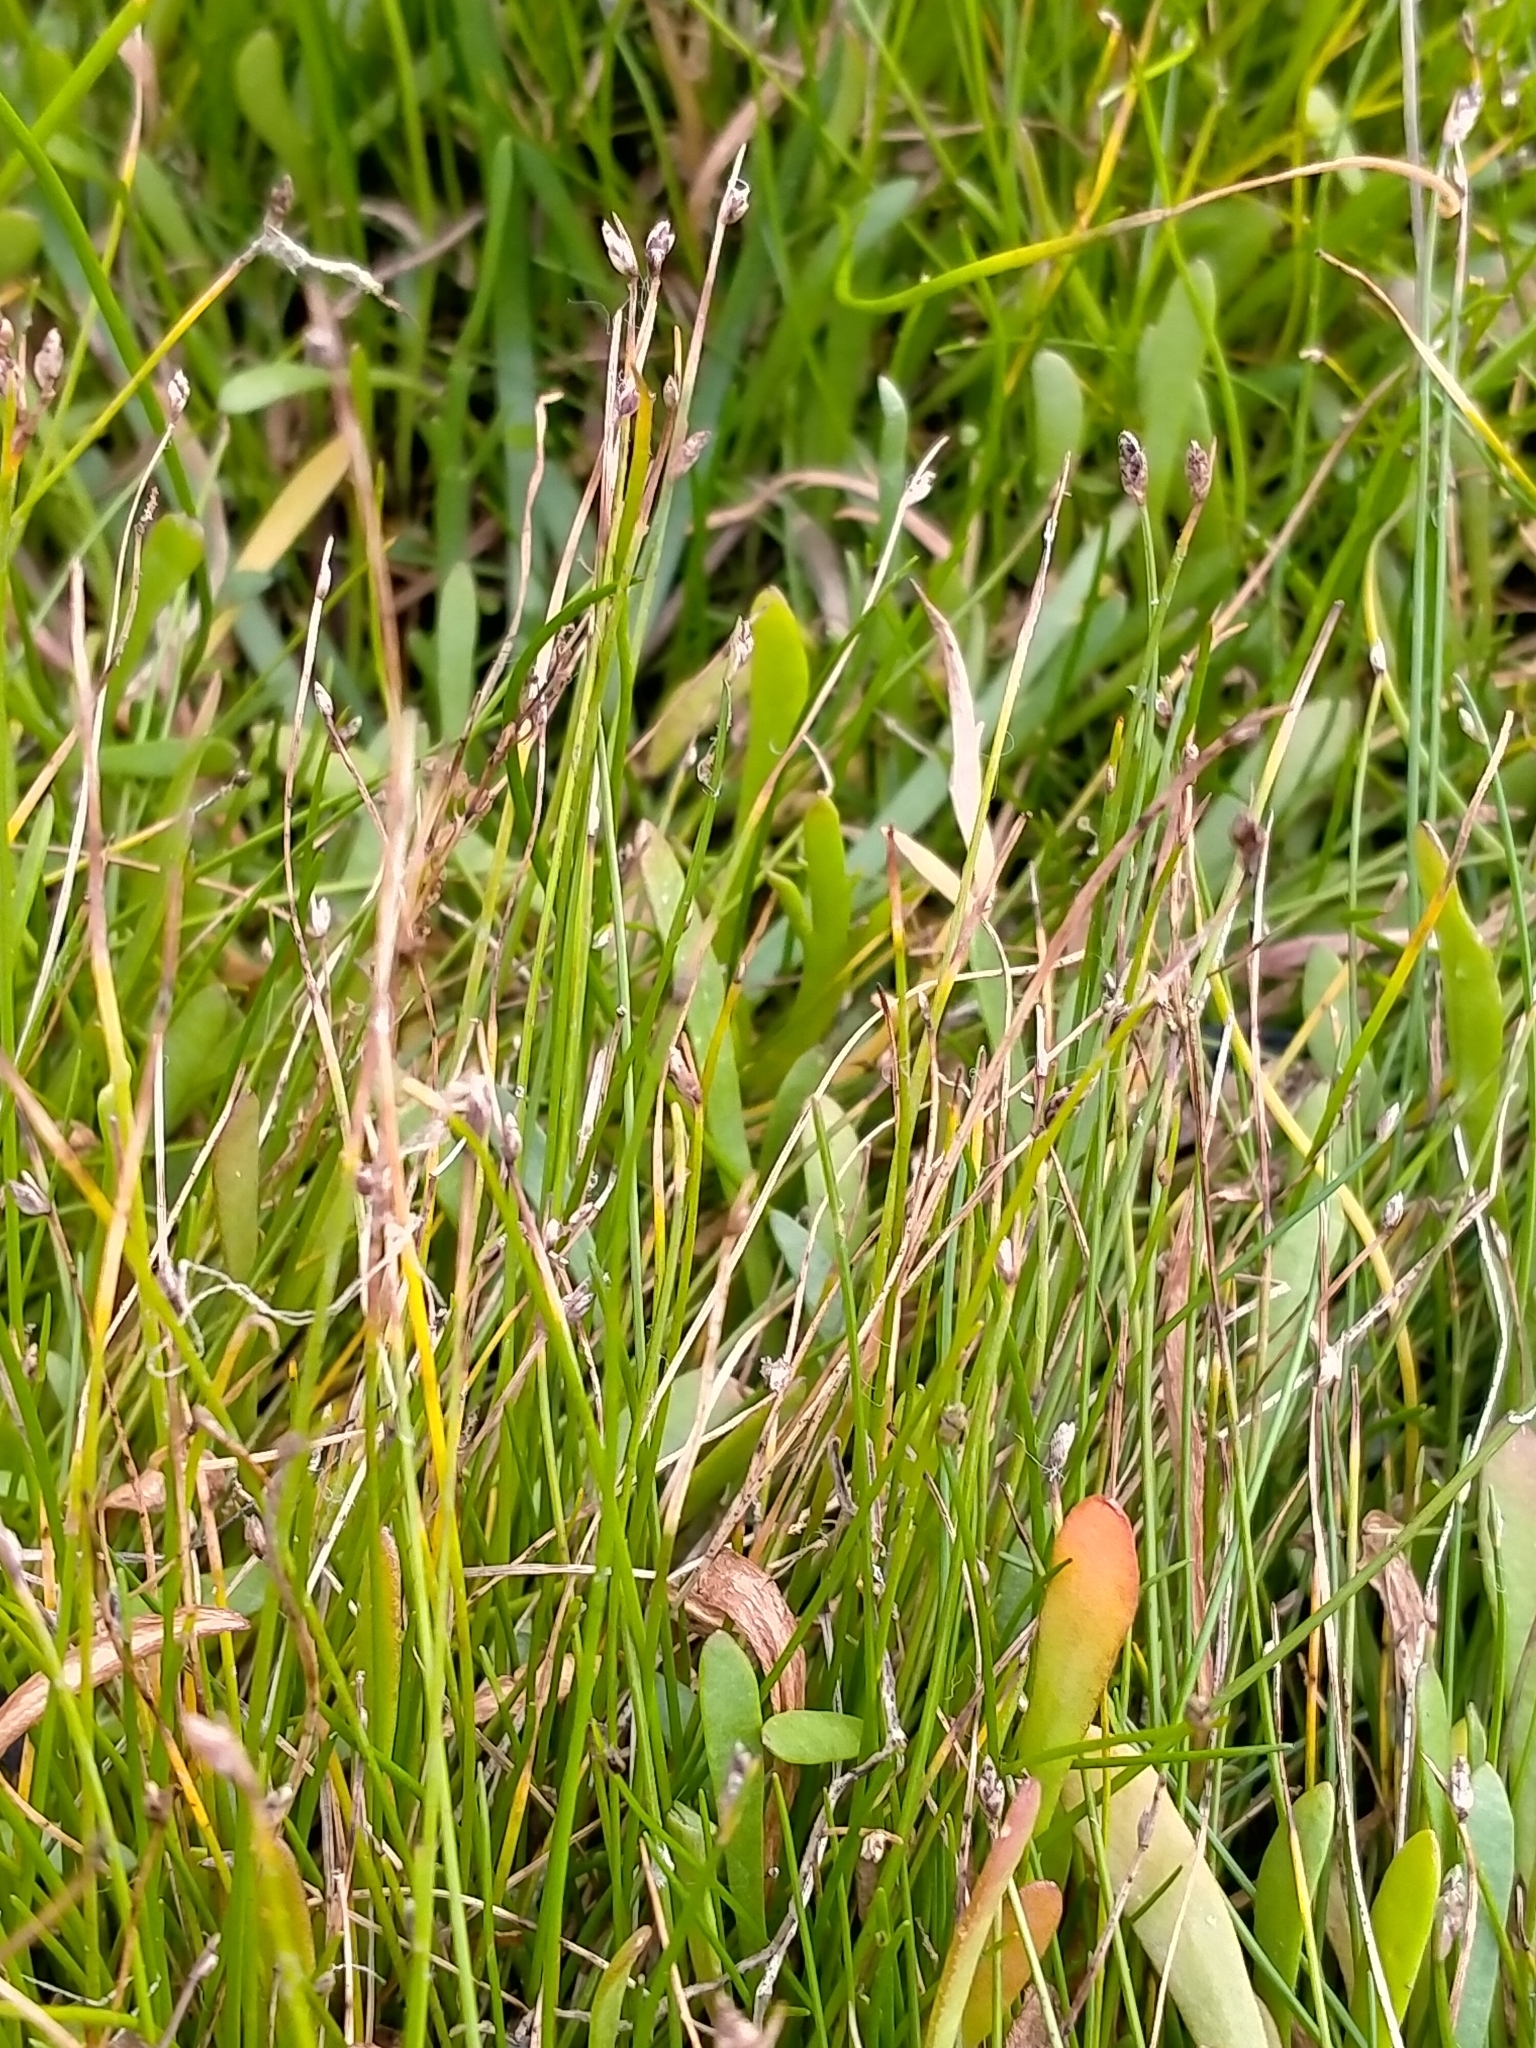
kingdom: Plantae
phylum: Tracheophyta
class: Liliopsida
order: Poales
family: Cyperaceae
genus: Isolepis
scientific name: Isolepis cernua
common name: Slender club-rush
